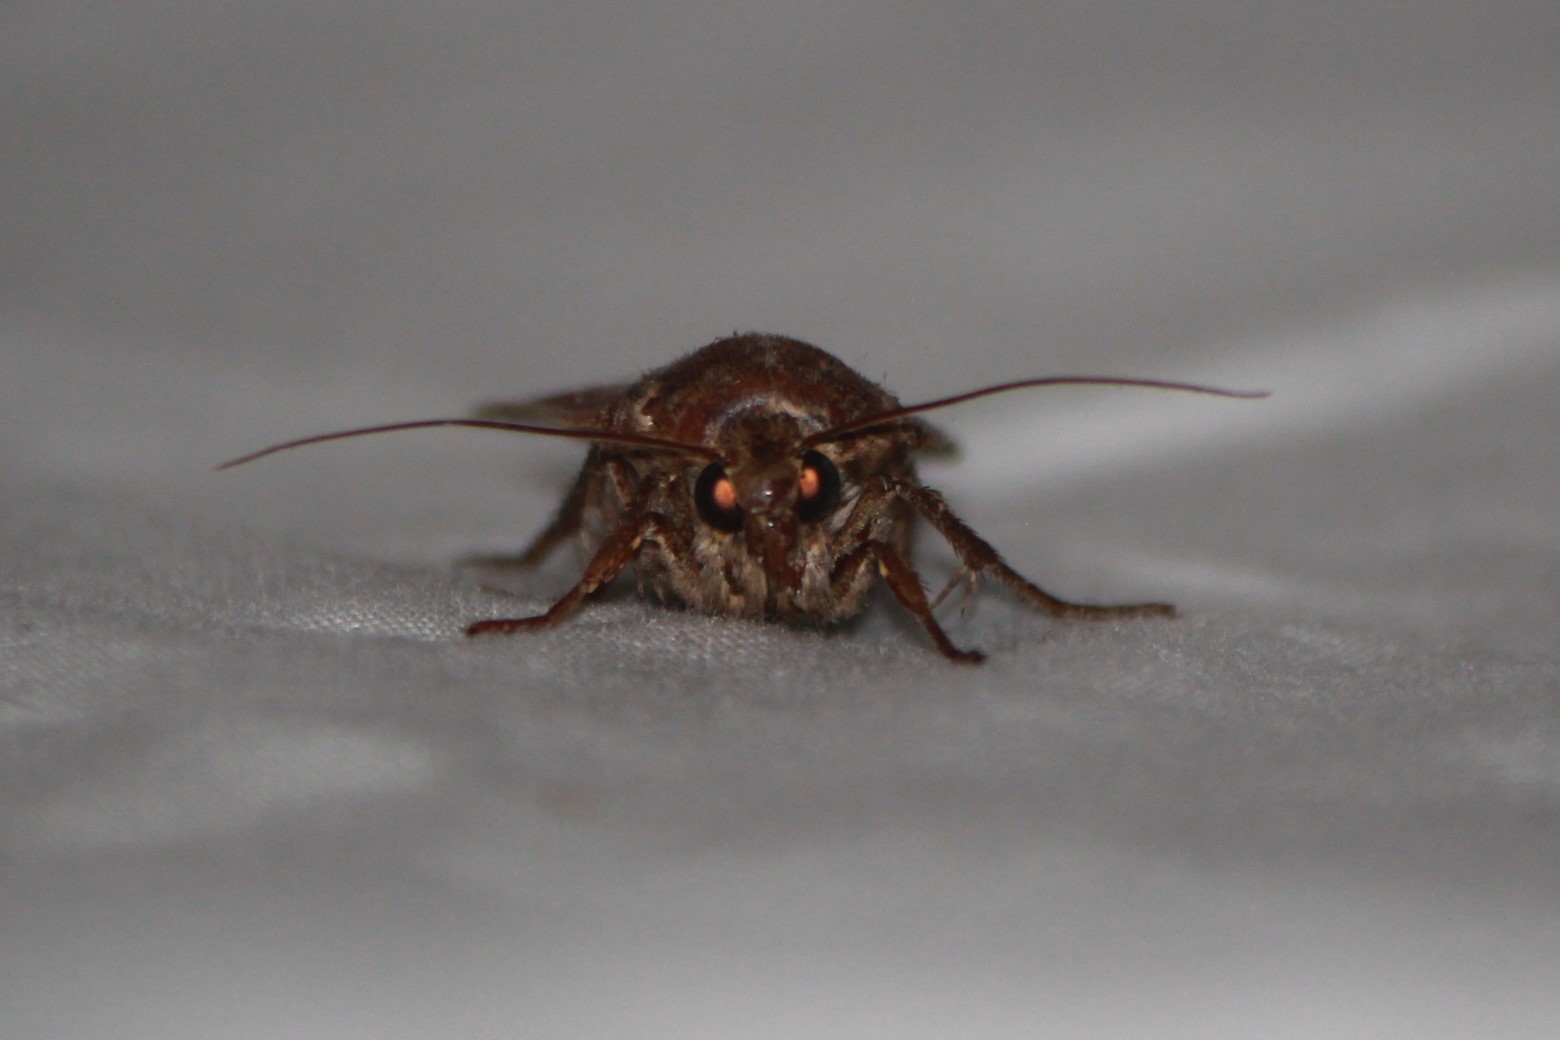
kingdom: Animalia
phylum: Arthropoda
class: Insecta
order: Lepidoptera
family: Noctuidae
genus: Noctua
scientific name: Noctua pronuba
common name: Large yellow underwing
